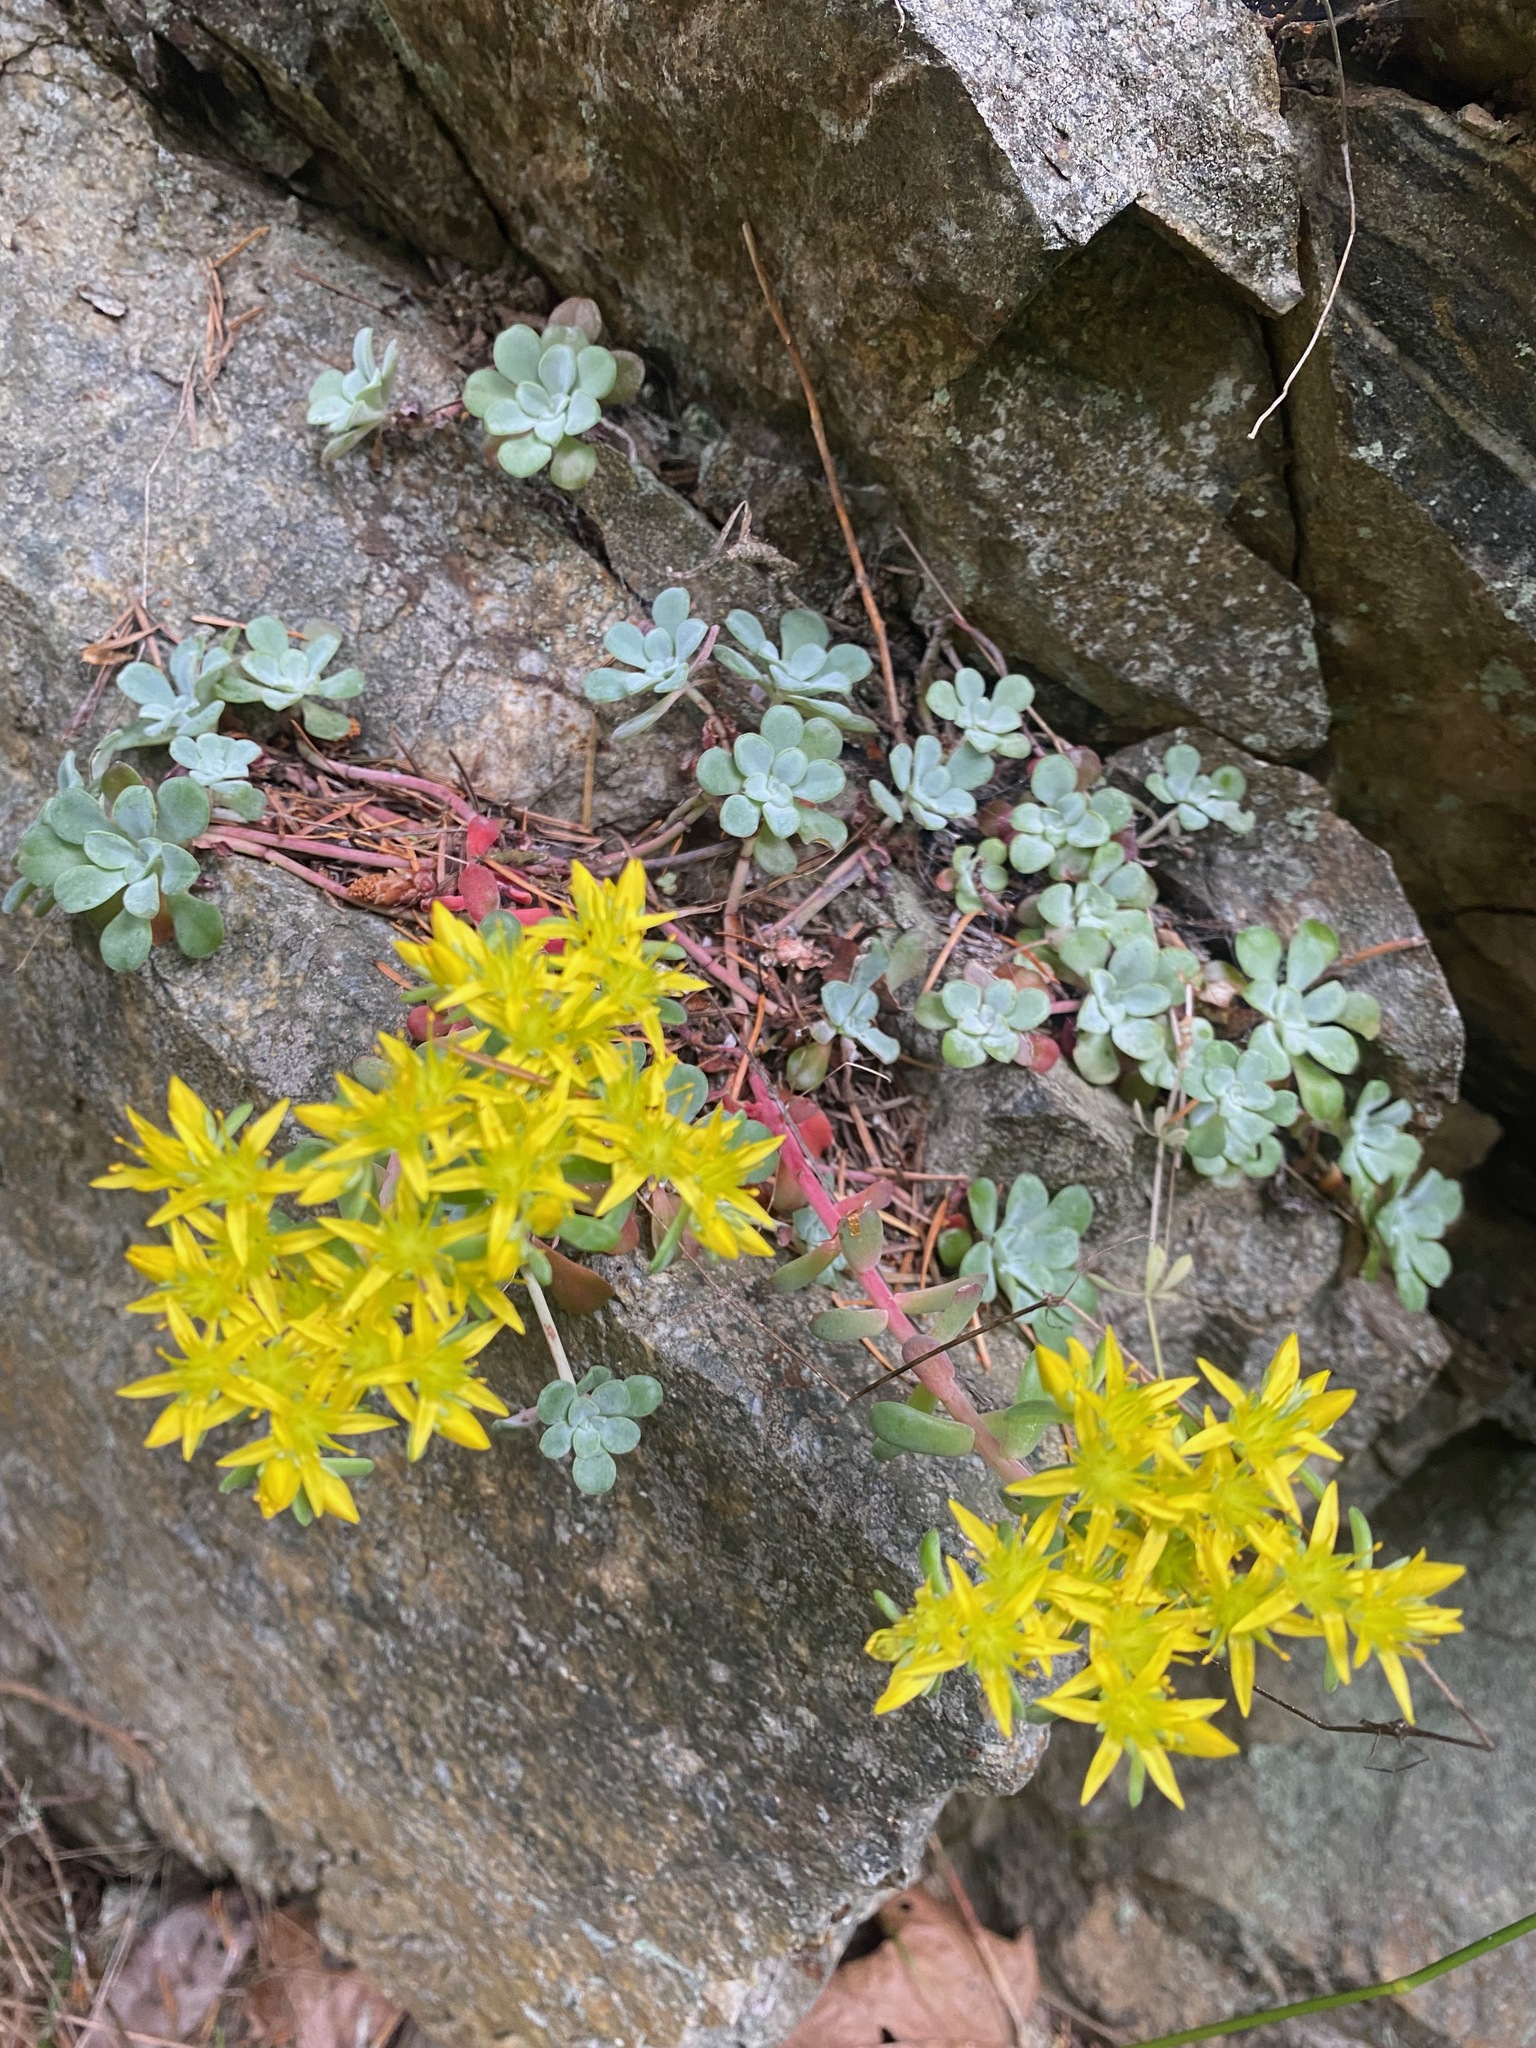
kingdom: Plantae
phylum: Tracheophyta
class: Magnoliopsida
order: Saxifragales
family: Crassulaceae
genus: Sedum
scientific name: Sedum spathulifolium
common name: Colorado stonecrop
